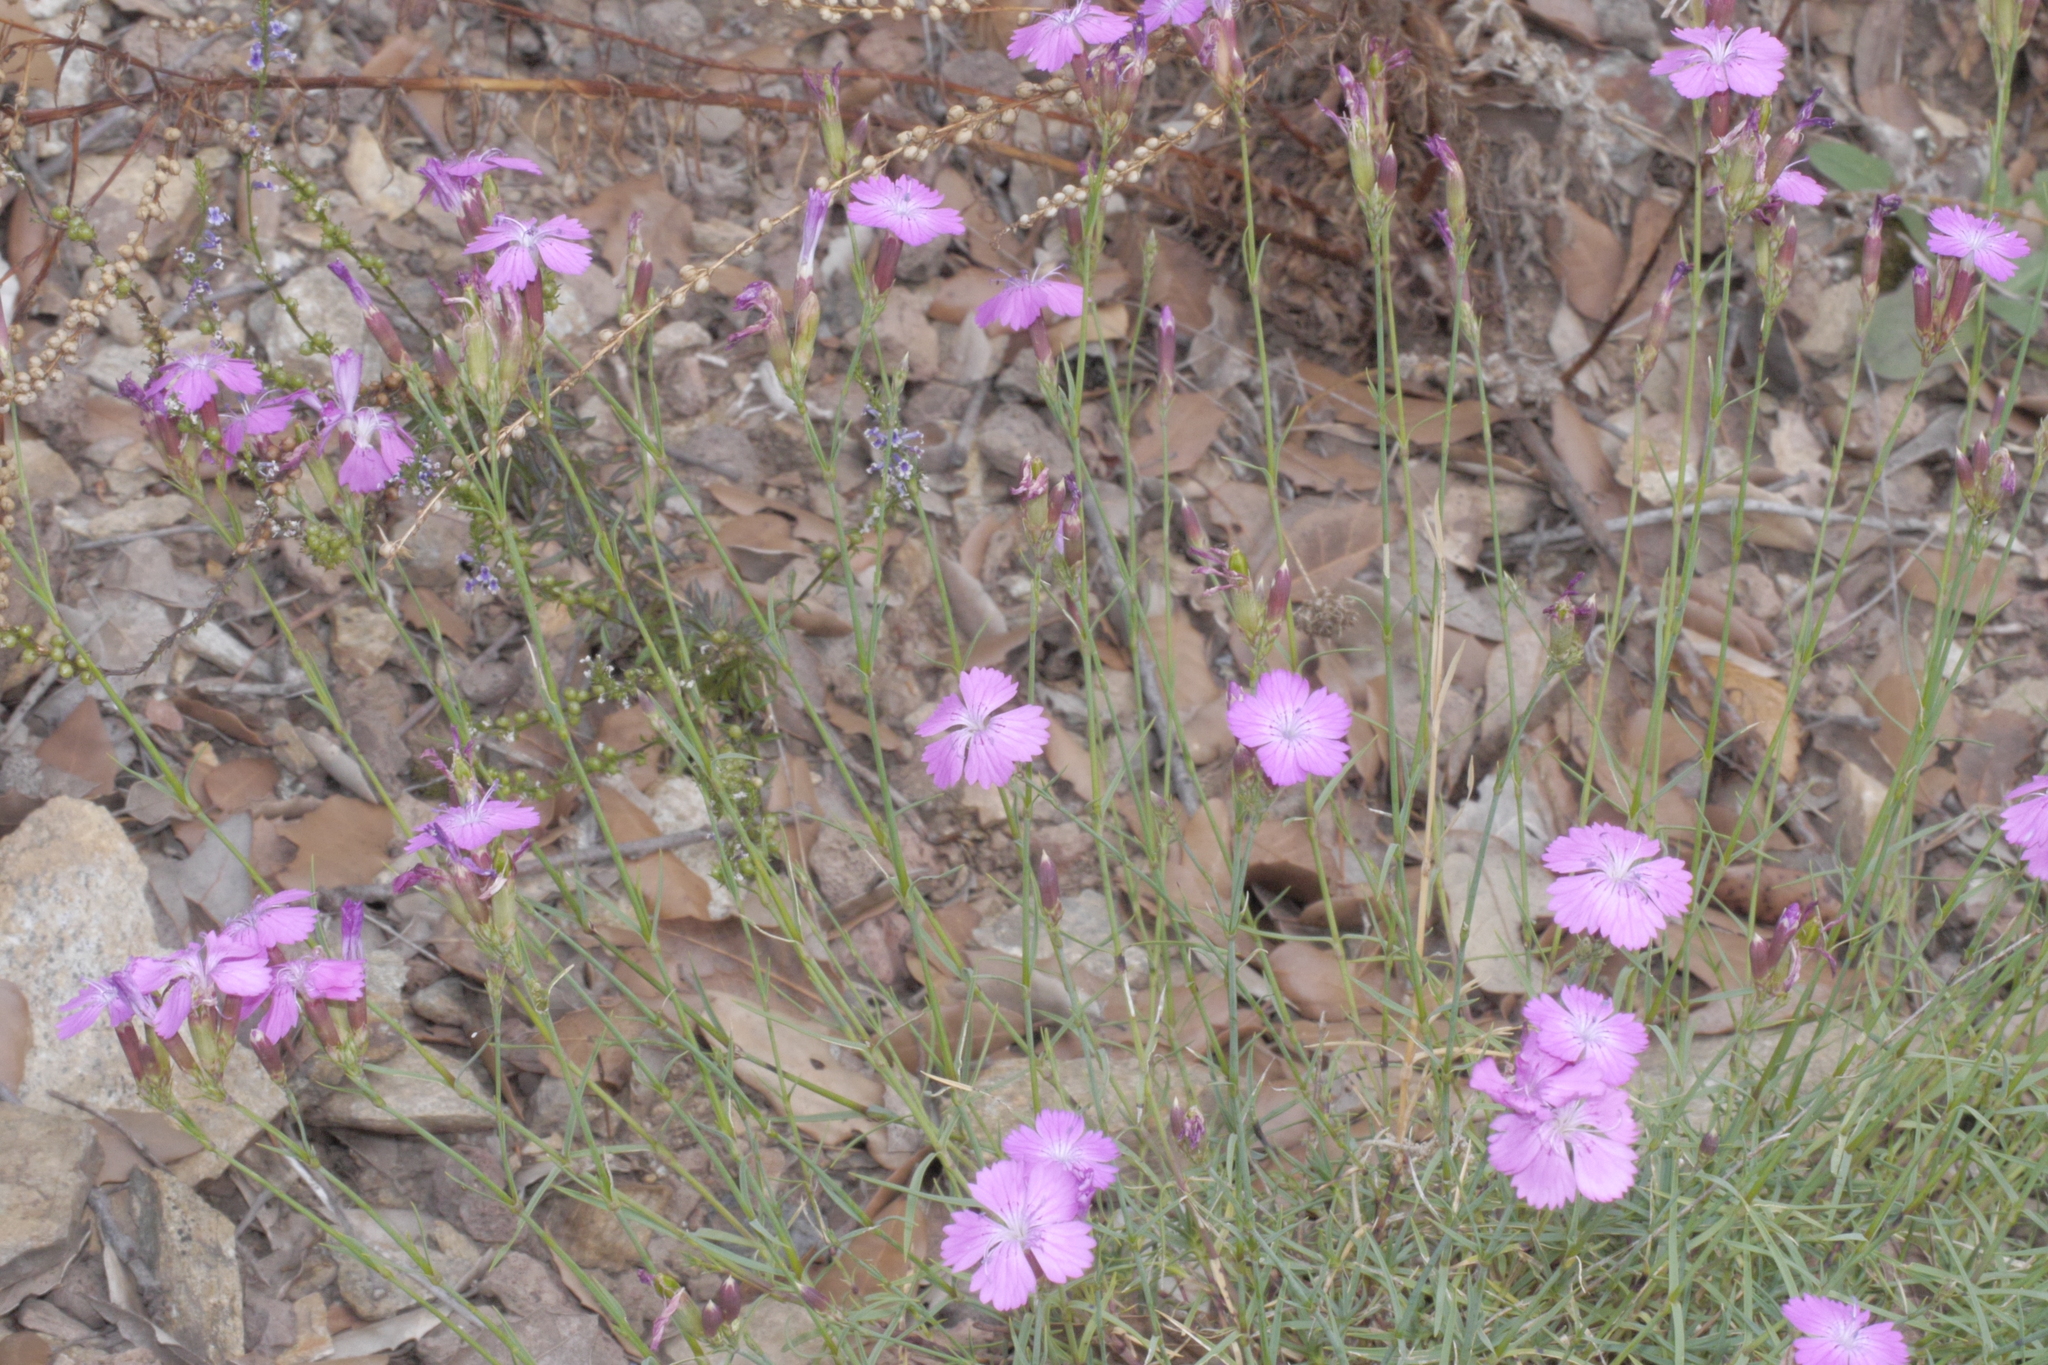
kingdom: Plantae
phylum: Tracheophyta
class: Magnoliopsida
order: Caryophyllales
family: Caryophyllaceae
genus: Dianthus
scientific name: Dianthus seguieri
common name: Ragged pink
